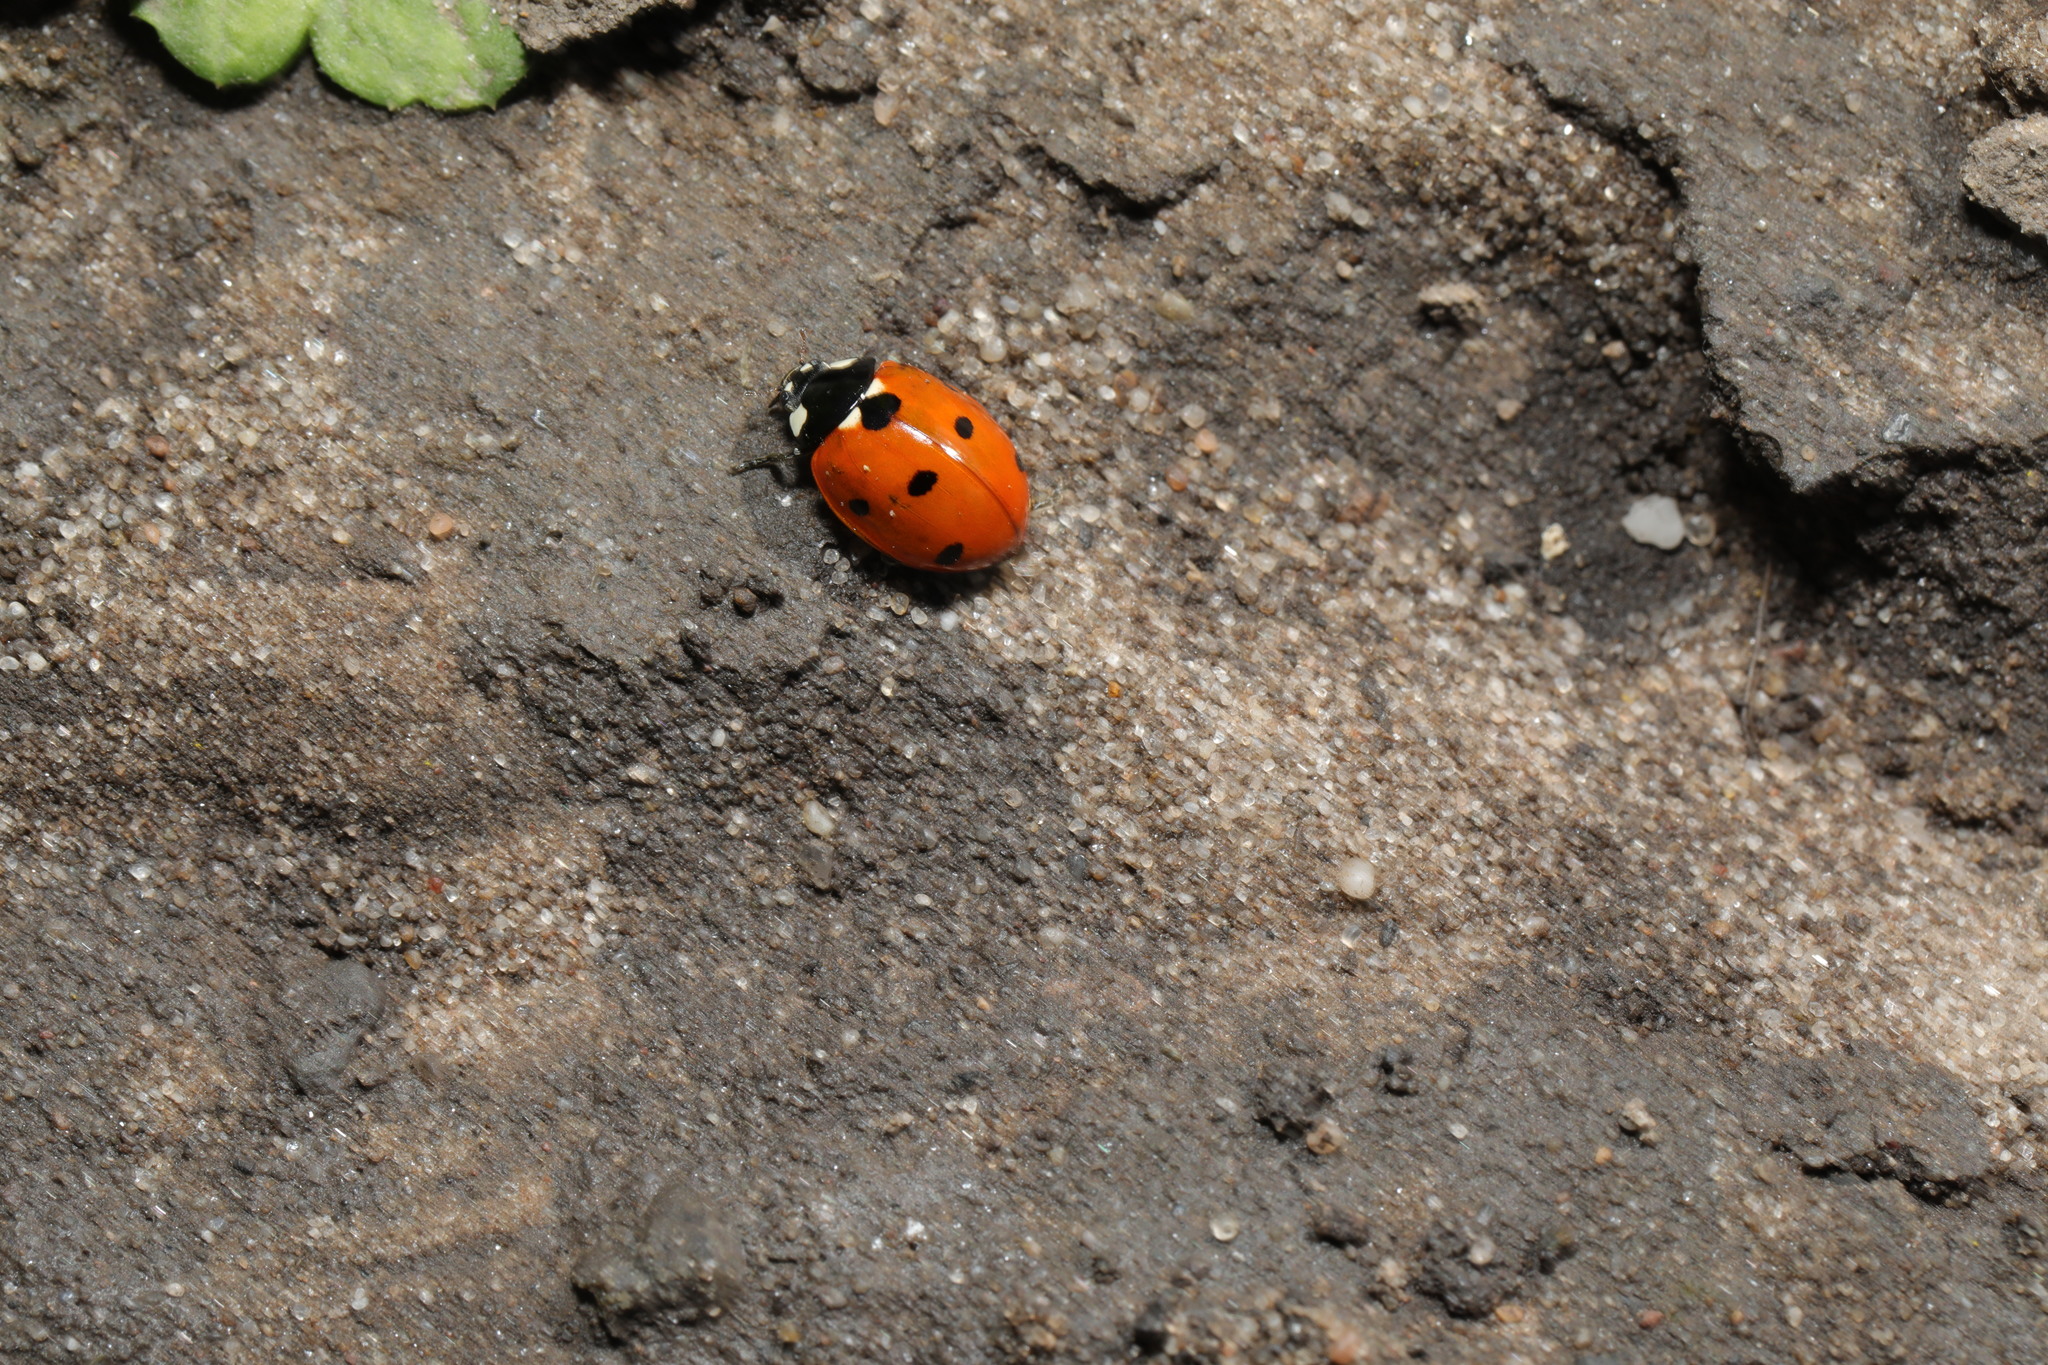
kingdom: Animalia
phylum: Arthropoda
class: Insecta
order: Coleoptera
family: Coccinellidae
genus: Coccinella
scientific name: Coccinella septempunctata
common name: Sevenspotted lady beetle
